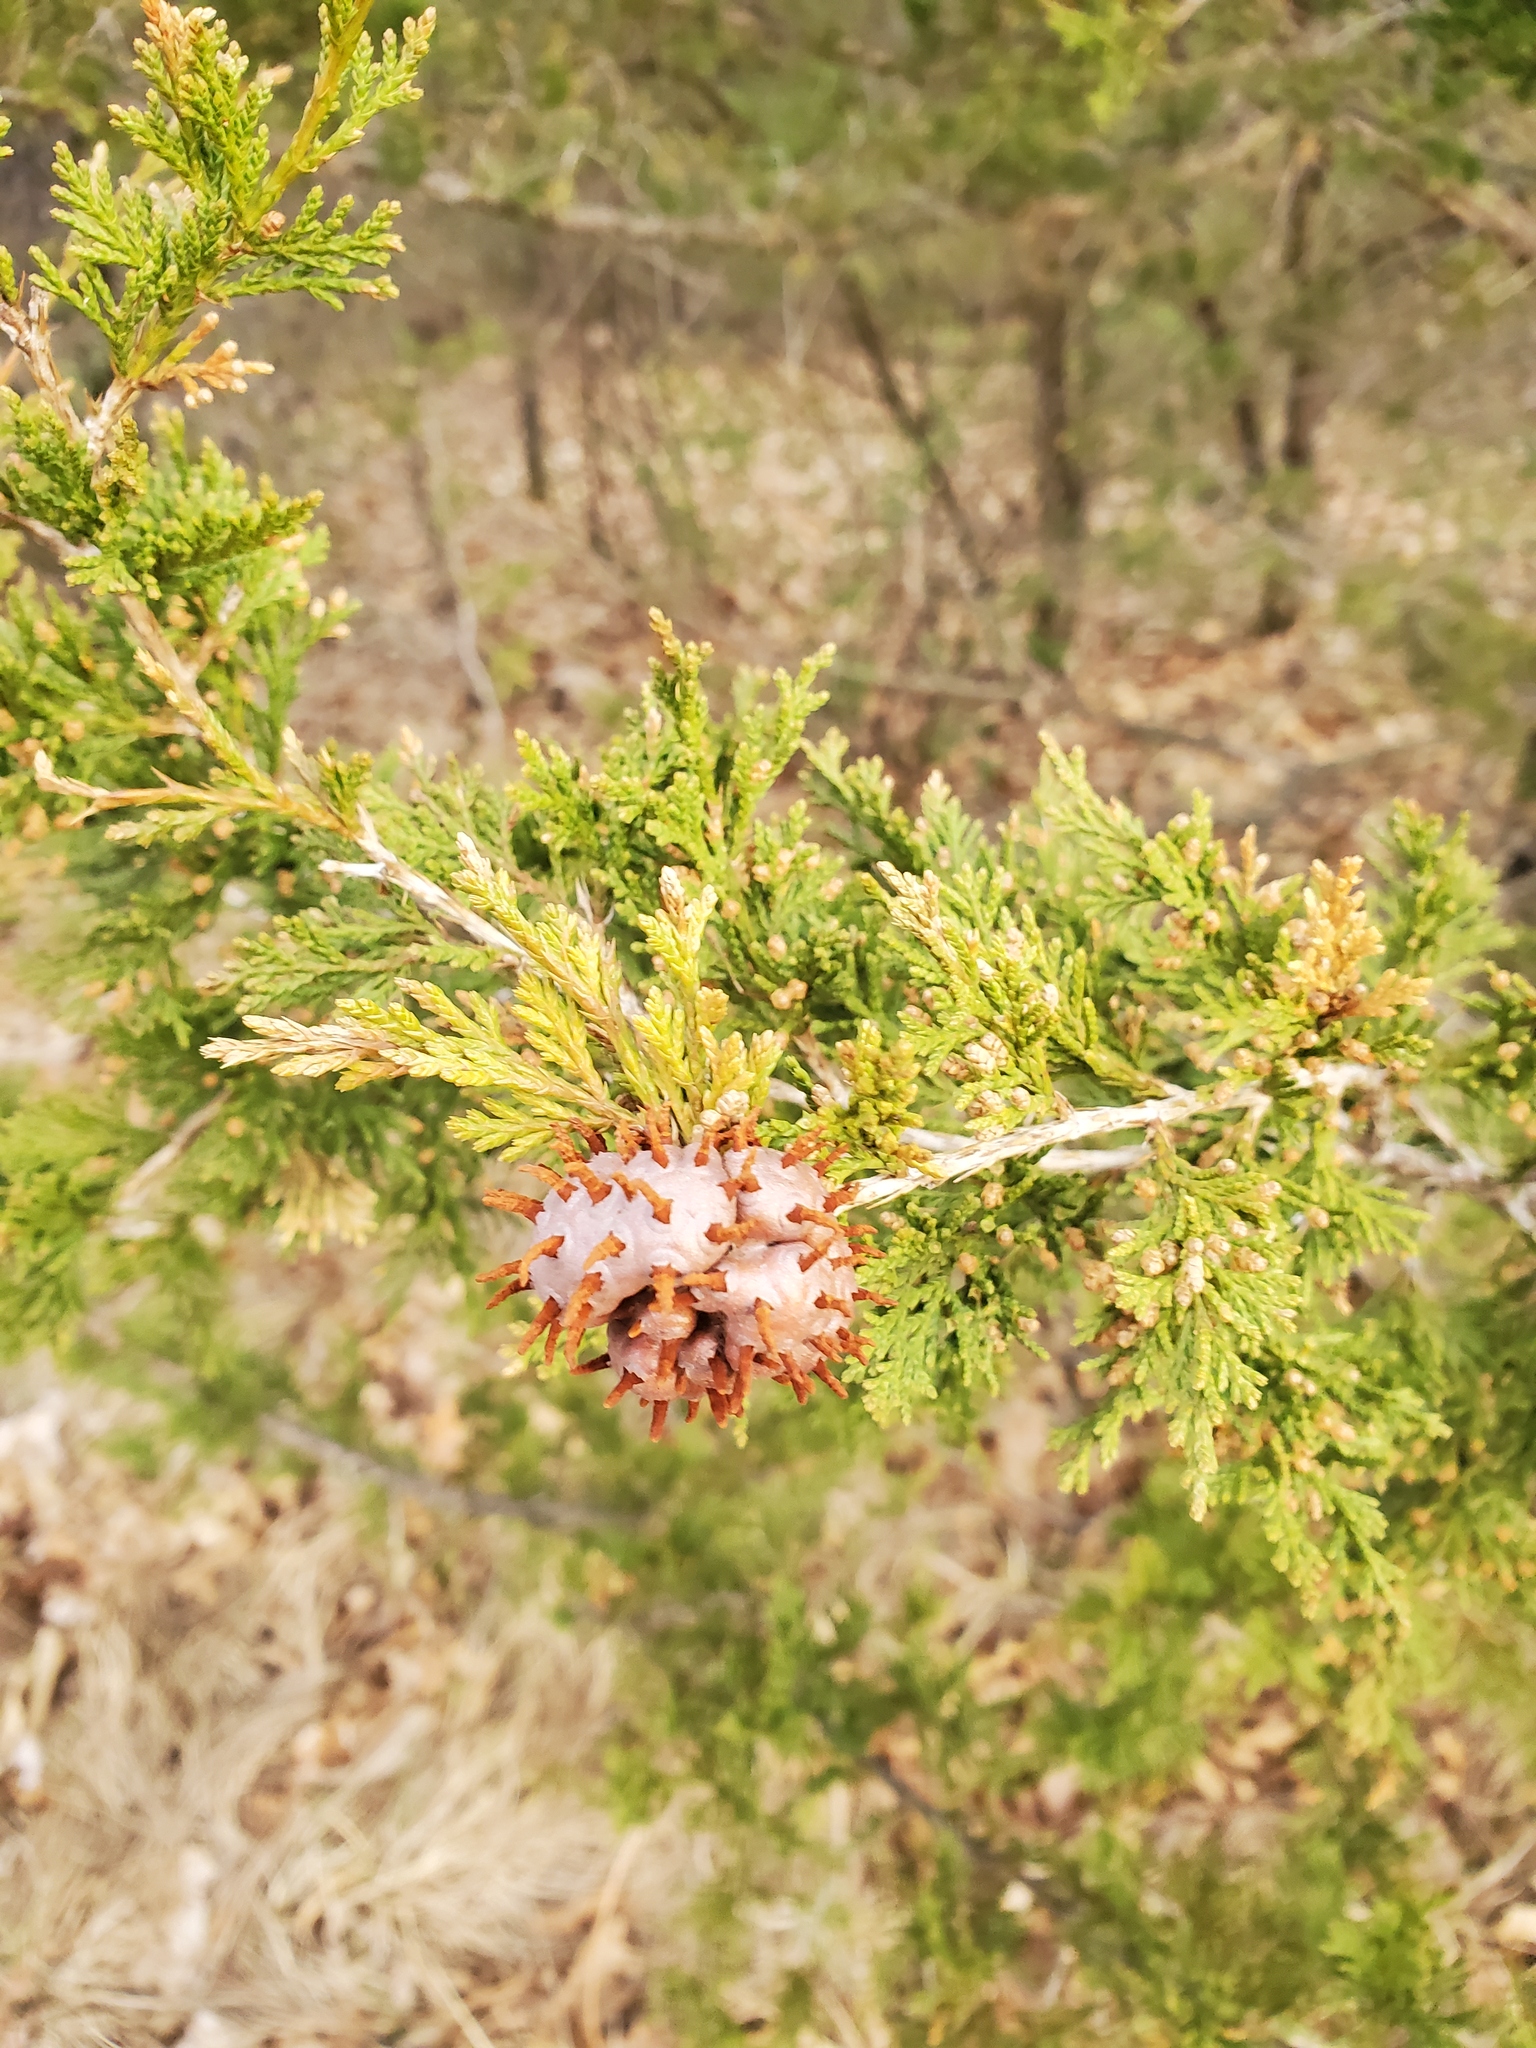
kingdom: Fungi
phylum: Basidiomycota
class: Pucciniomycetes
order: Pucciniales
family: Gymnosporangiaceae
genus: Gymnosporangium
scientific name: Gymnosporangium juniperi-virginianae
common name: Juniper-apple rust
